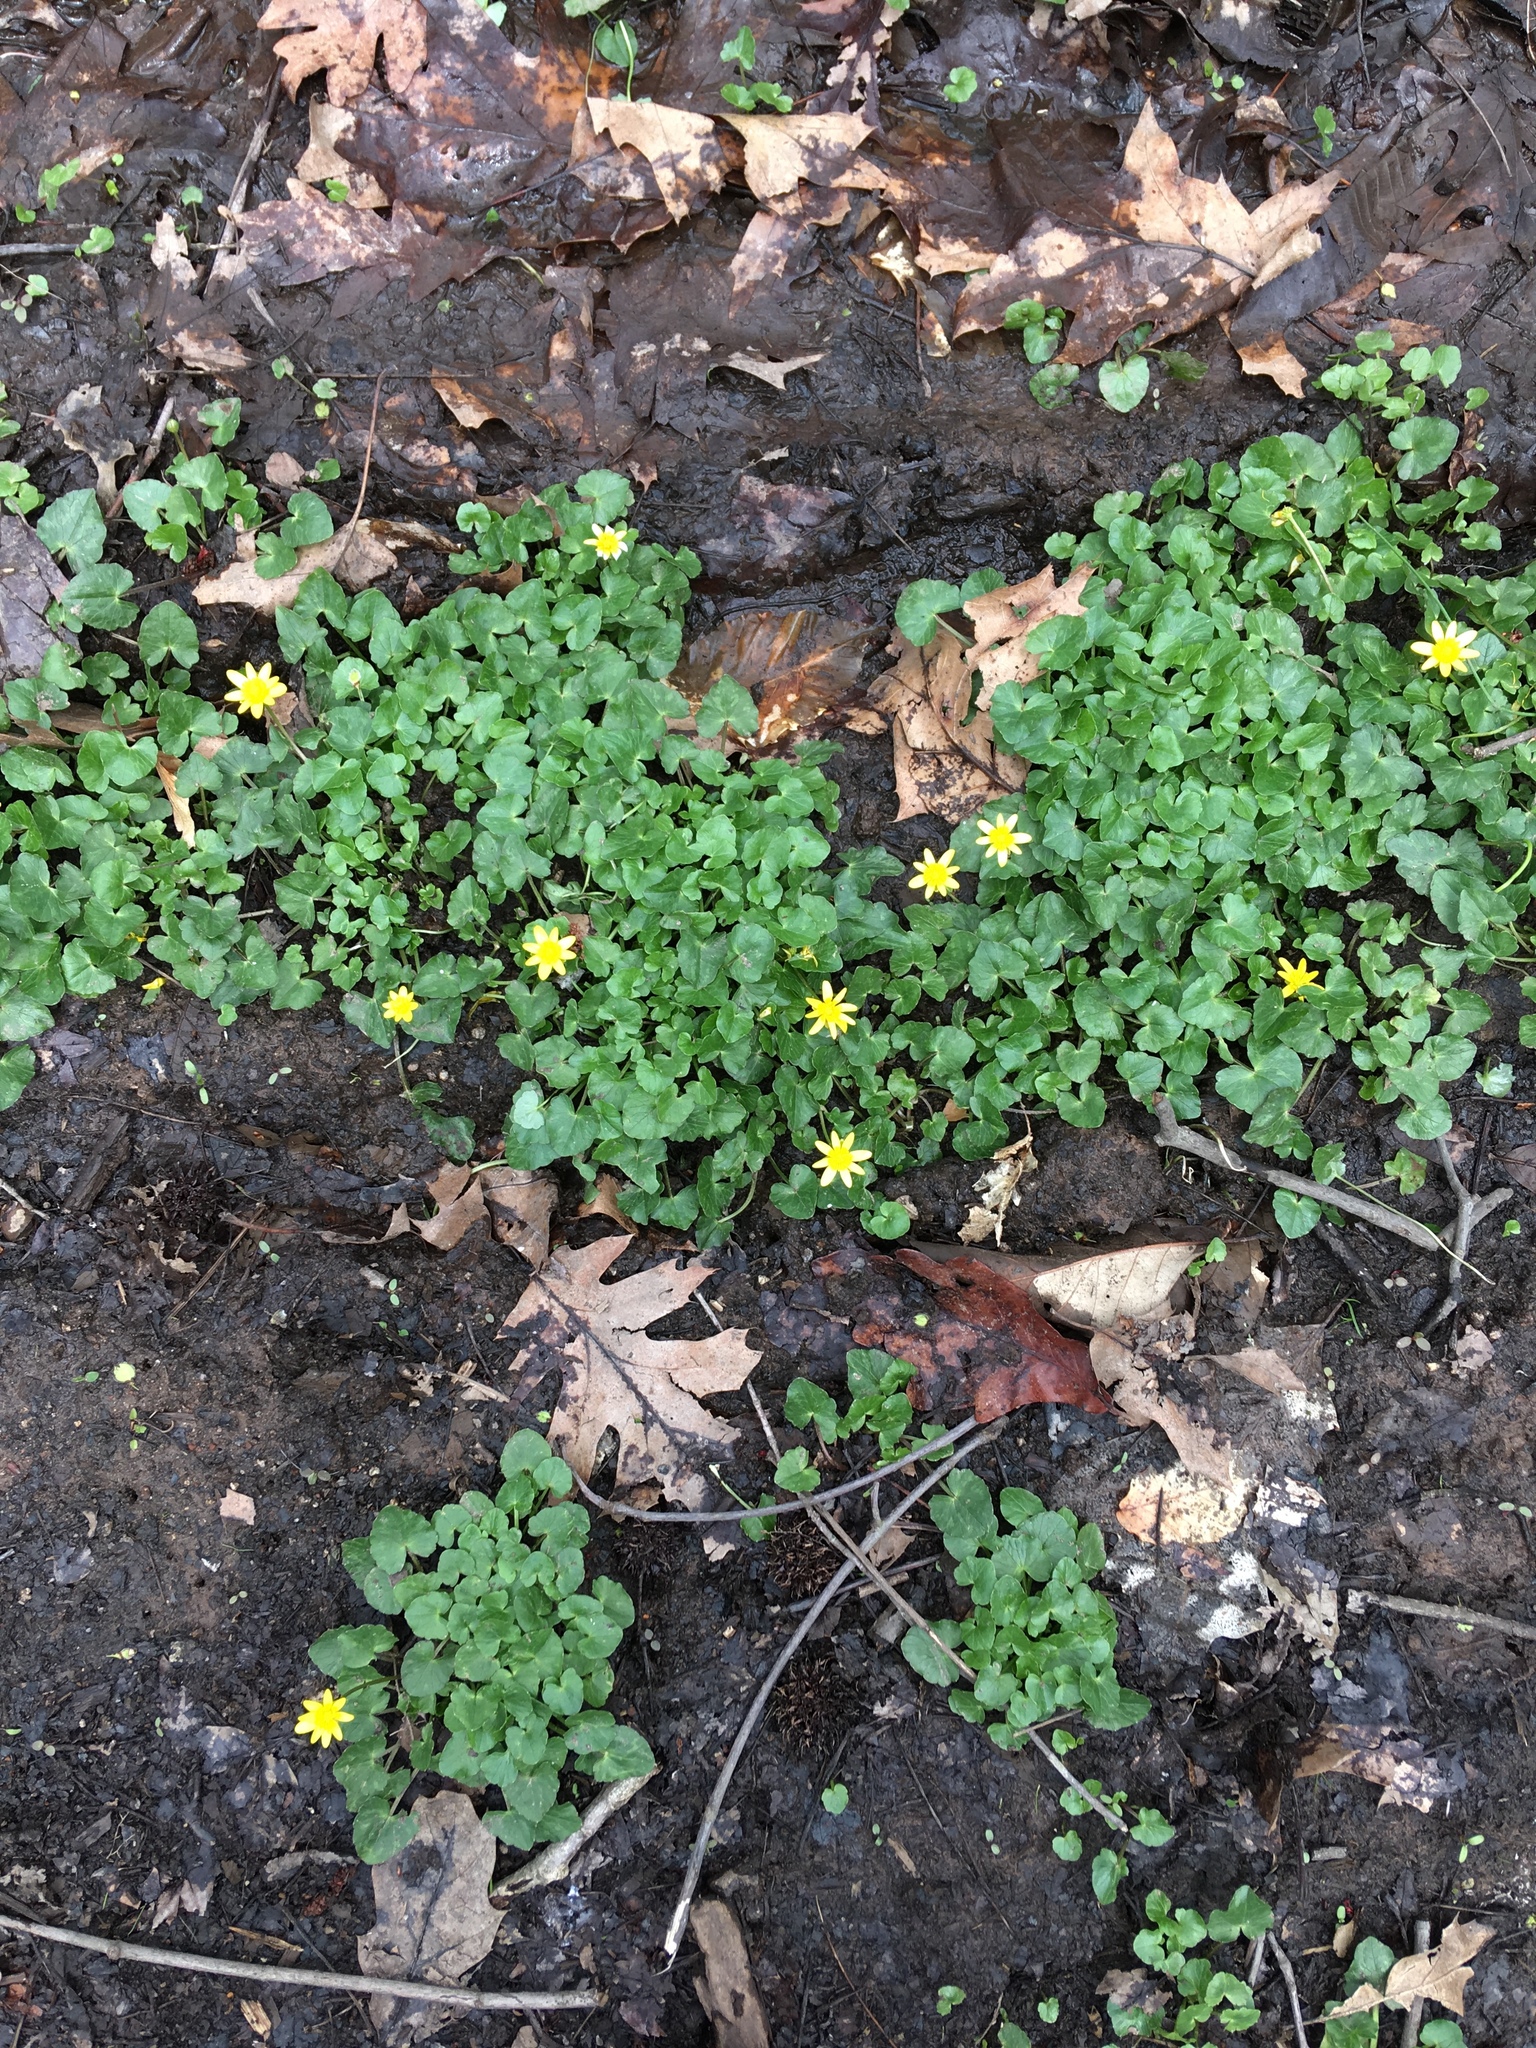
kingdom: Plantae
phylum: Tracheophyta
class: Magnoliopsida
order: Ranunculales
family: Ranunculaceae
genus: Ficaria
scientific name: Ficaria verna
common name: Lesser celandine
